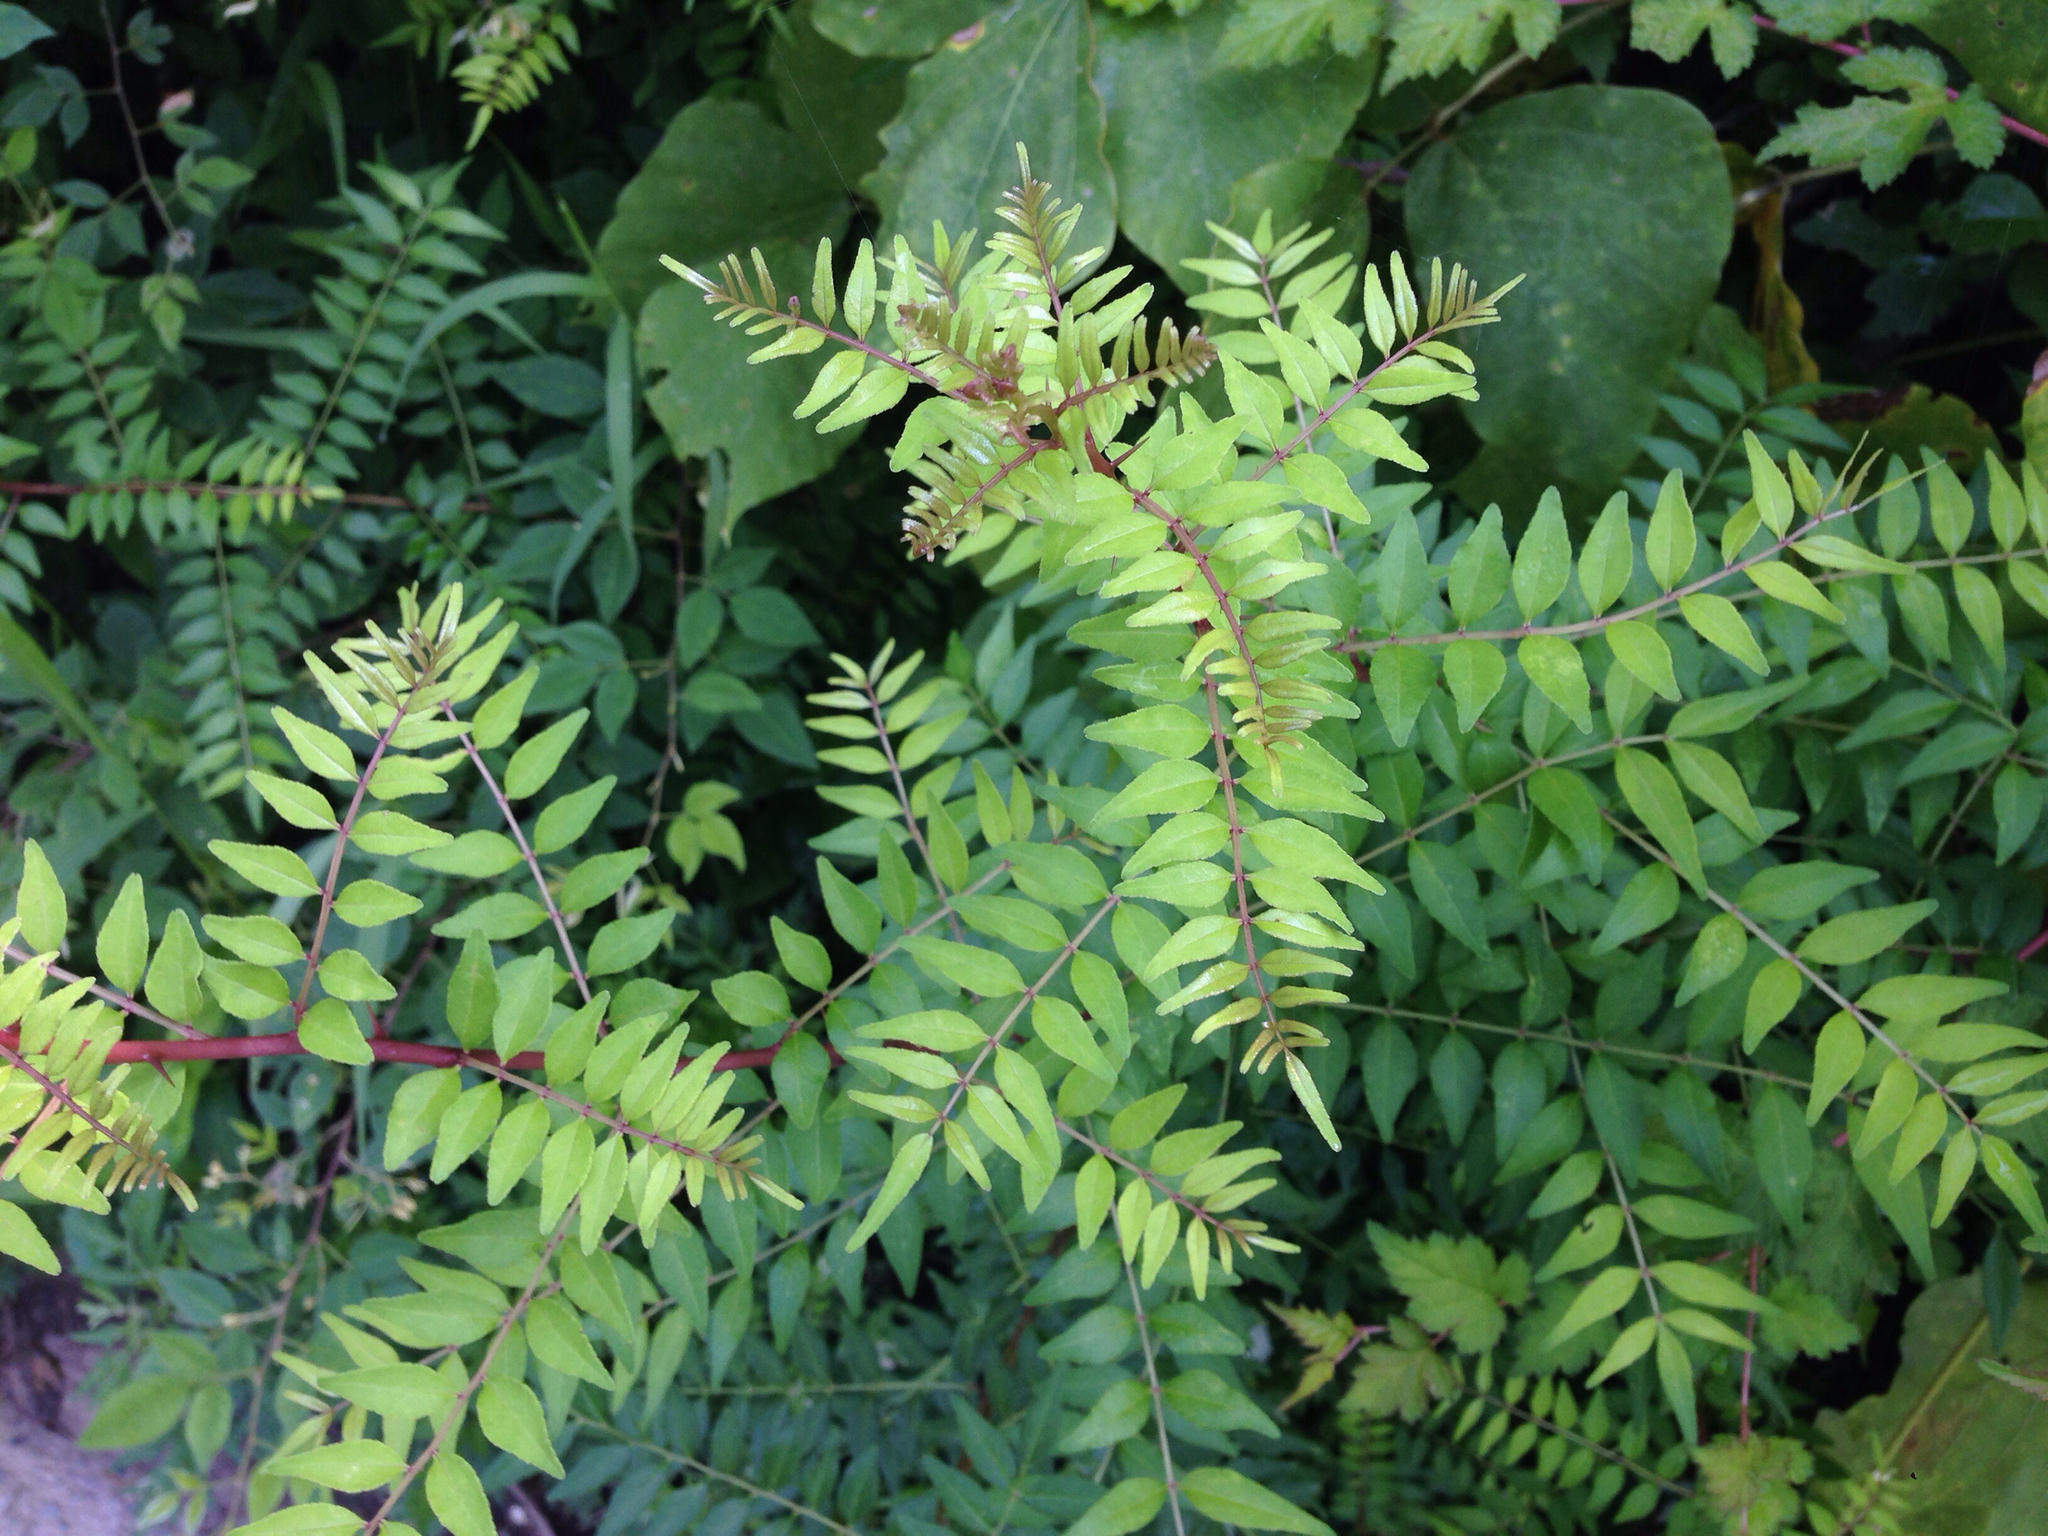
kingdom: Plantae
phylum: Tracheophyta
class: Magnoliopsida
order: Sapindales
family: Rutaceae
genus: Zanthoxylum
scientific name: Zanthoxylum piperitum
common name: Japanese-pepper
